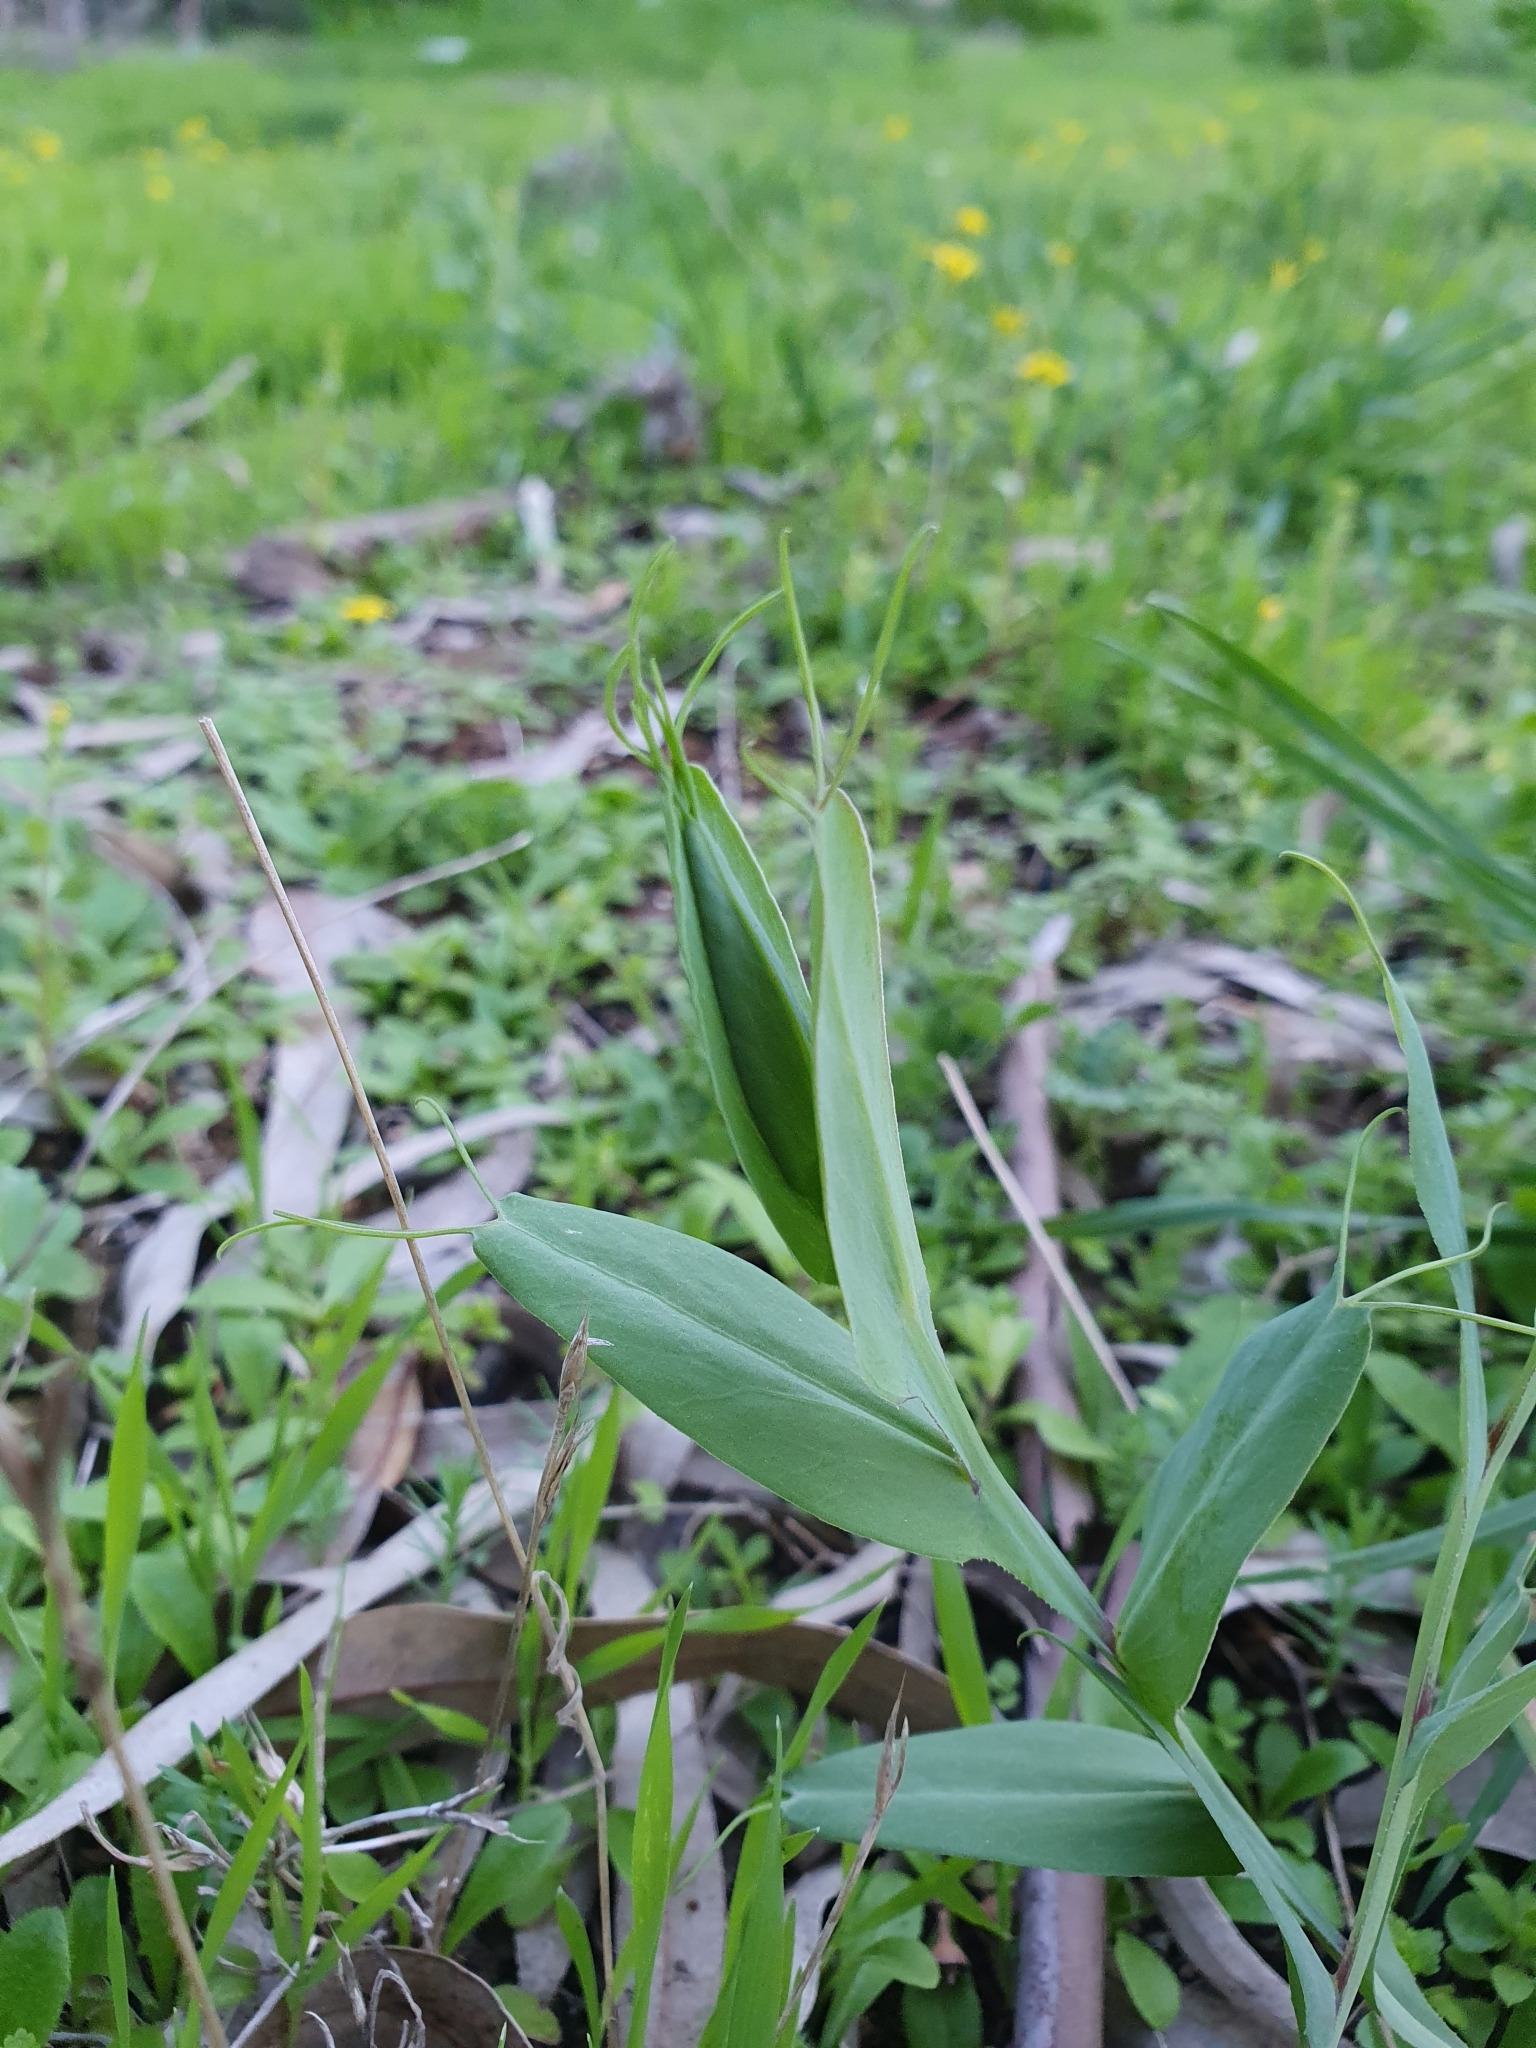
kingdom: Plantae
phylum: Tracheophyta
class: Magnoliopsida
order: Fabales
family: Fabaceae
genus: Lathyrus
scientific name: Lathyrus ochrus
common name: Winged vetchling
